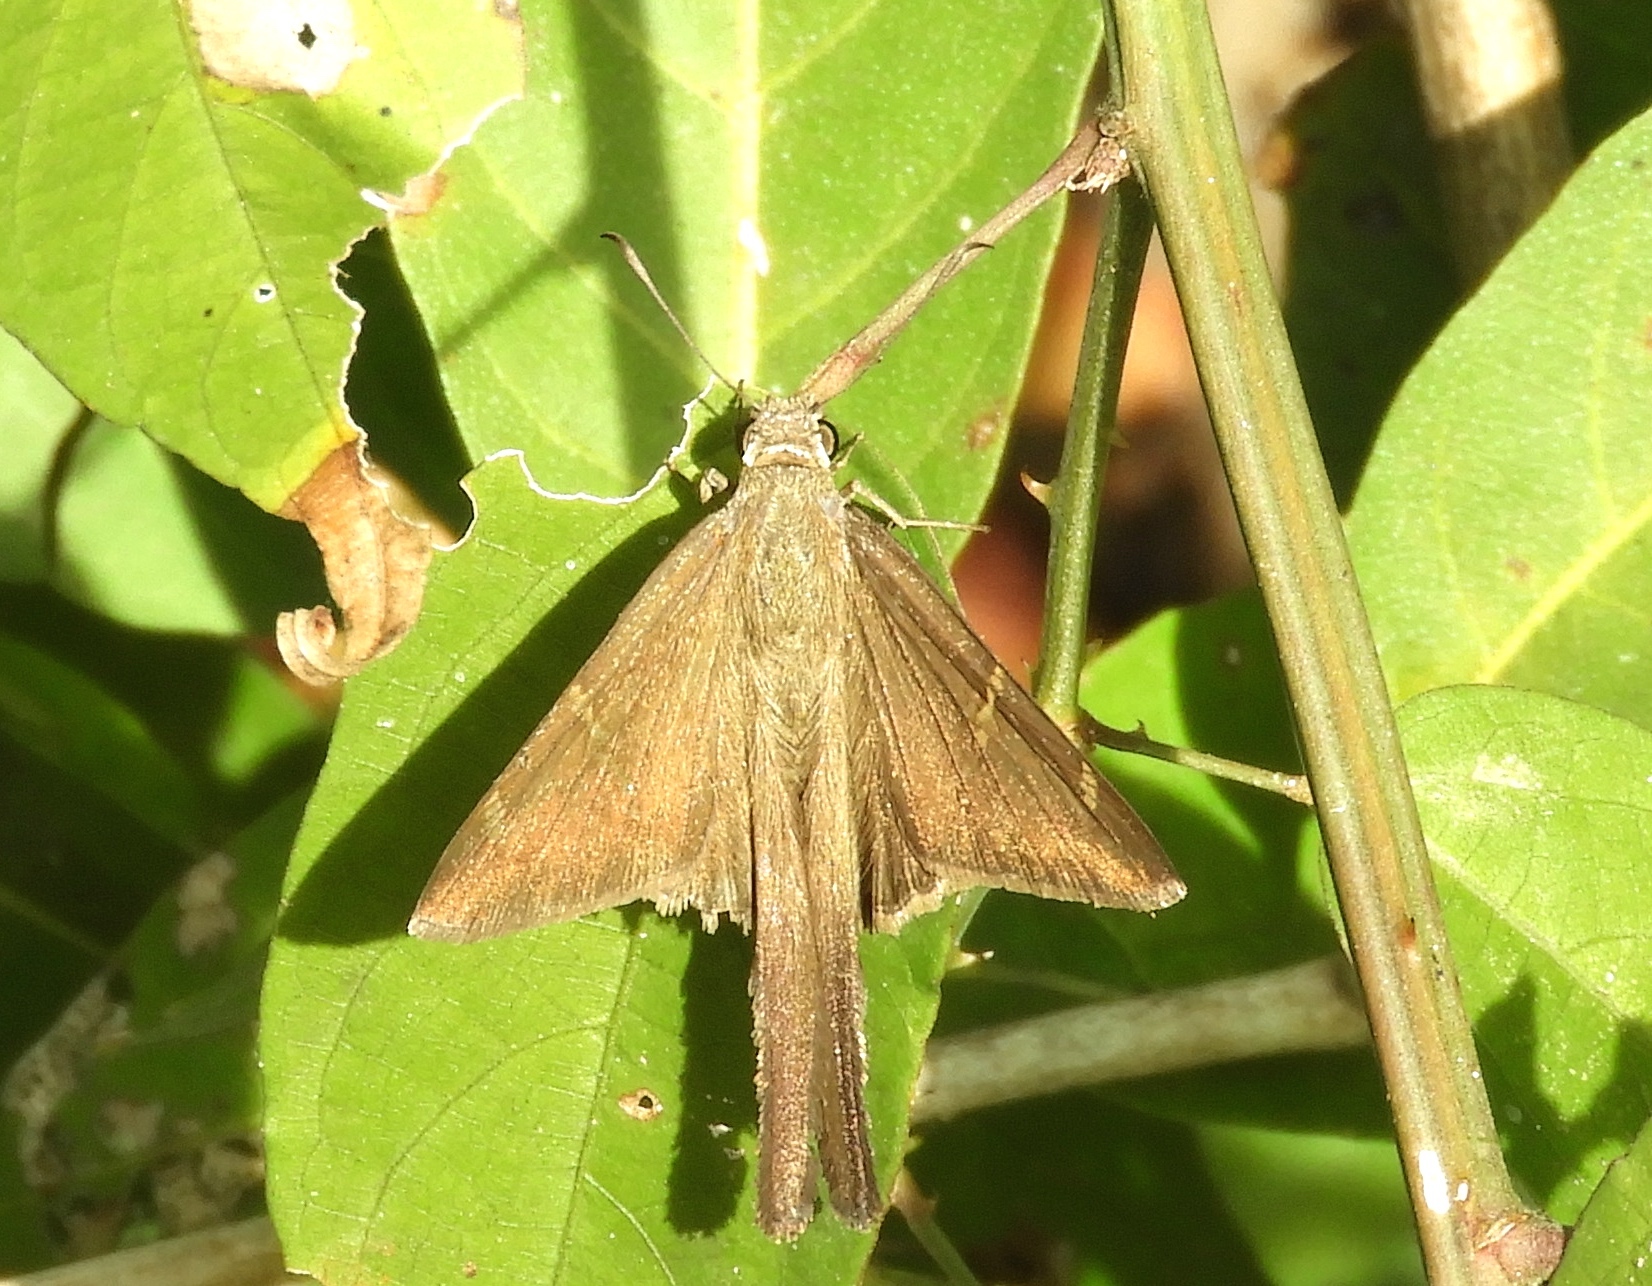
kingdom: Animalia
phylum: Arthropoda
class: Insecta
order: Lepidoptera
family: Hesperiidae
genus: Urbanus
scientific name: Urbanus procne
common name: Brown longtail
